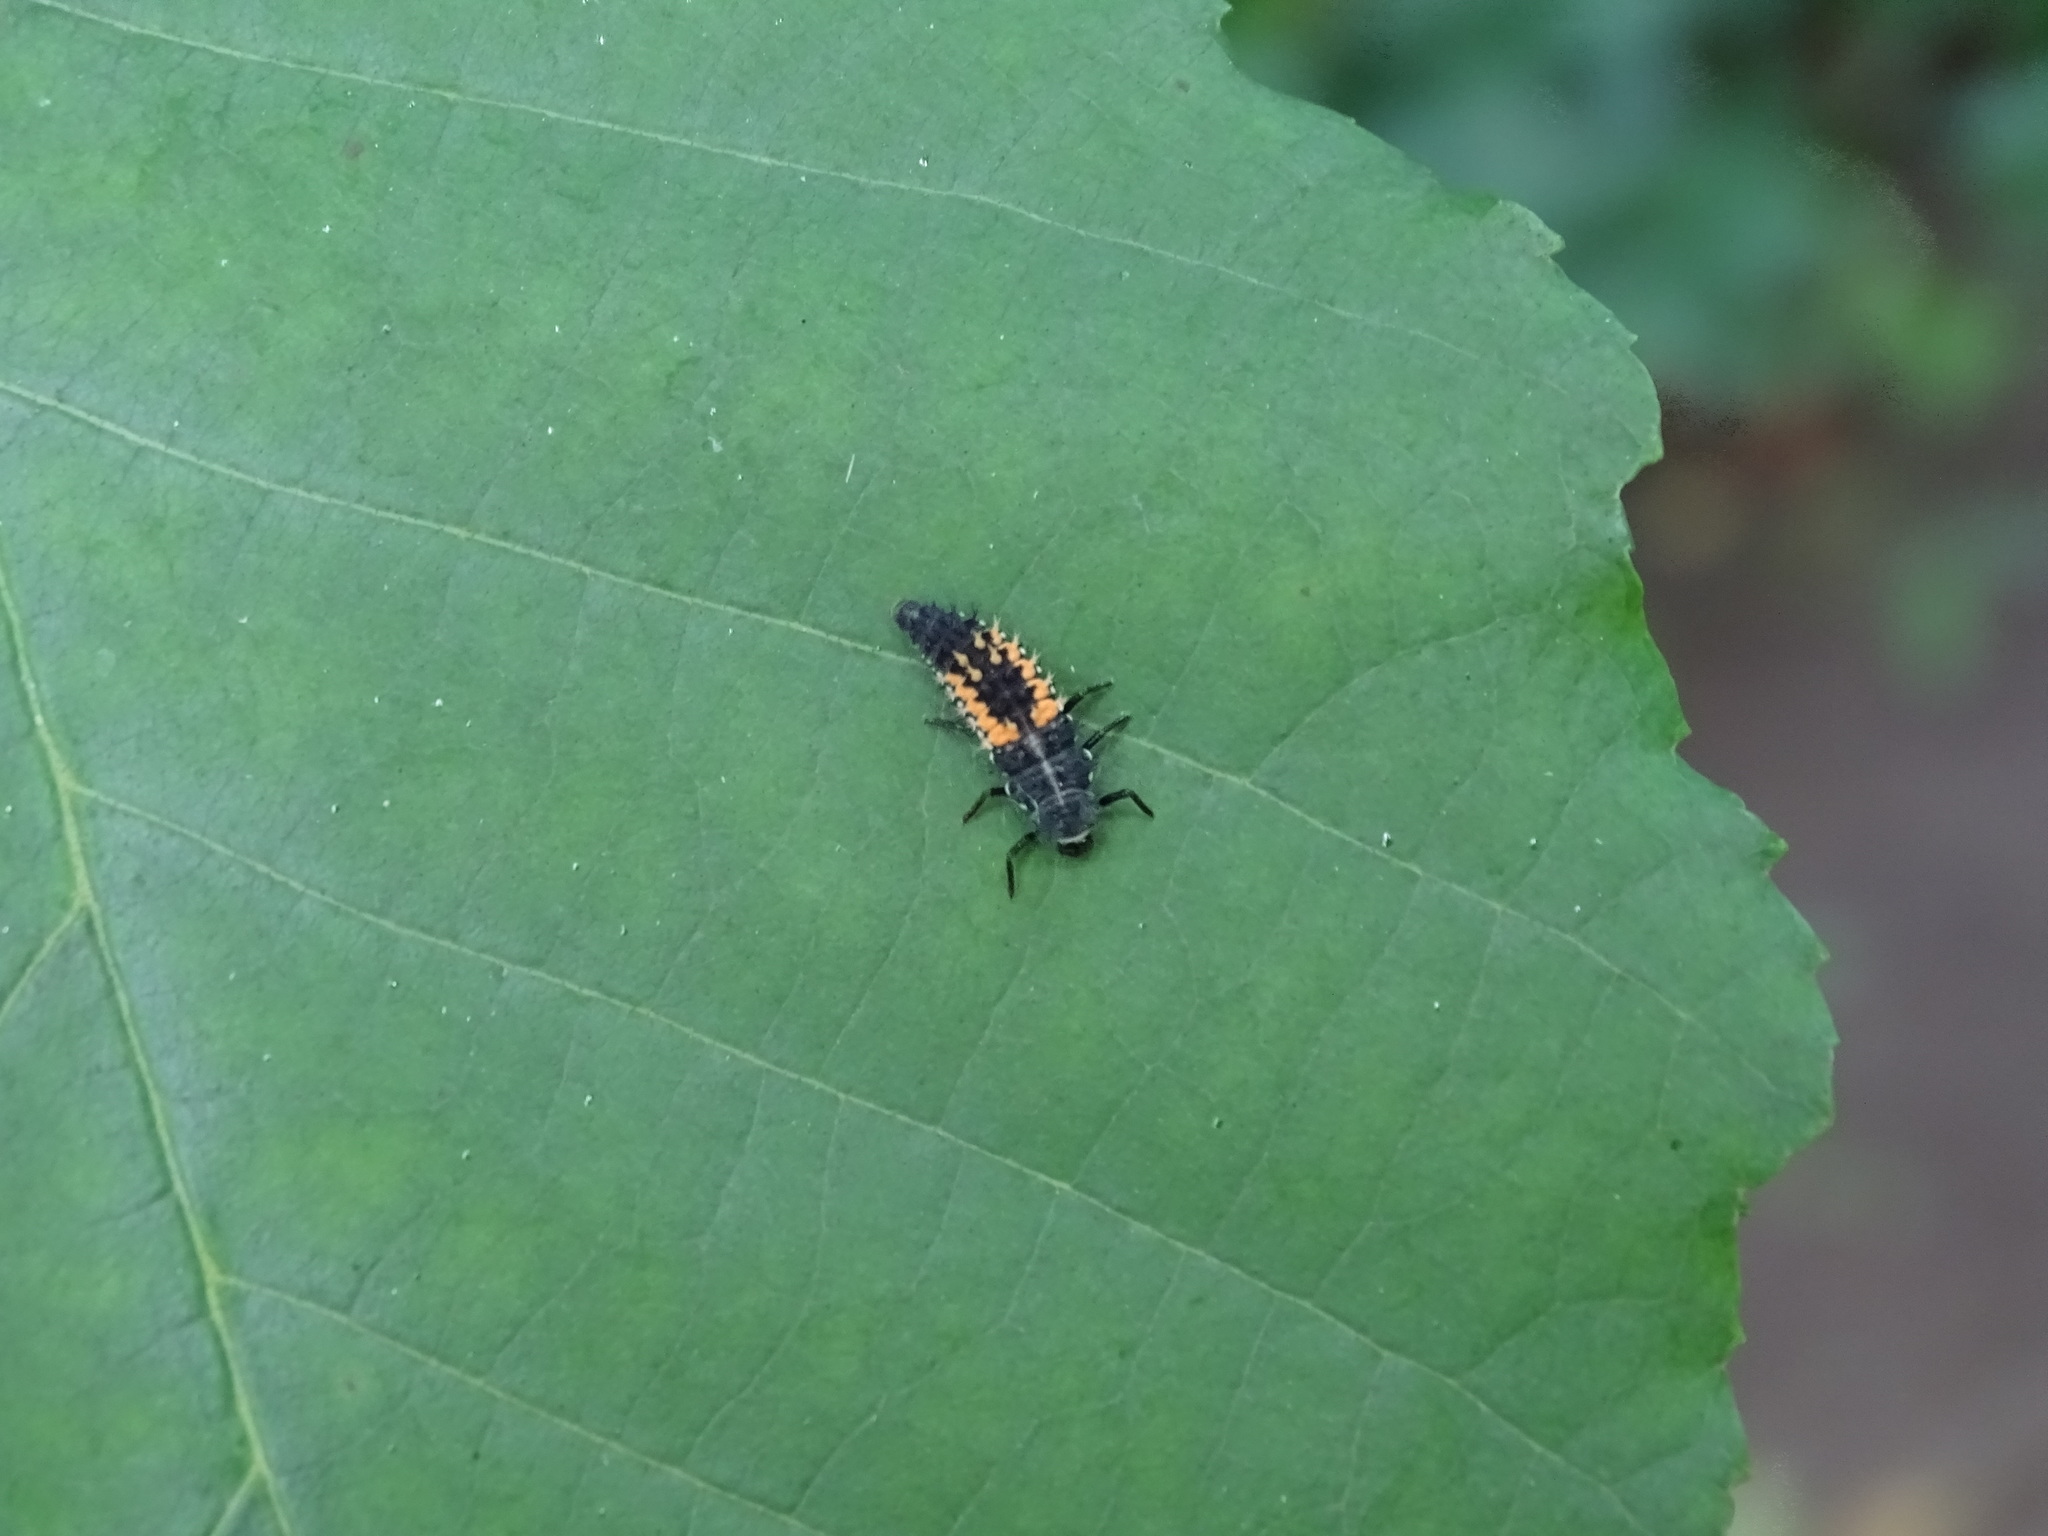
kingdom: Animalia
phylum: Arthropoda
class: Insecta
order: Coleoptera
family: Coccinellidae
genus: Harmonia
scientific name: Harmonia axyridis
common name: Harlequin ladybird
